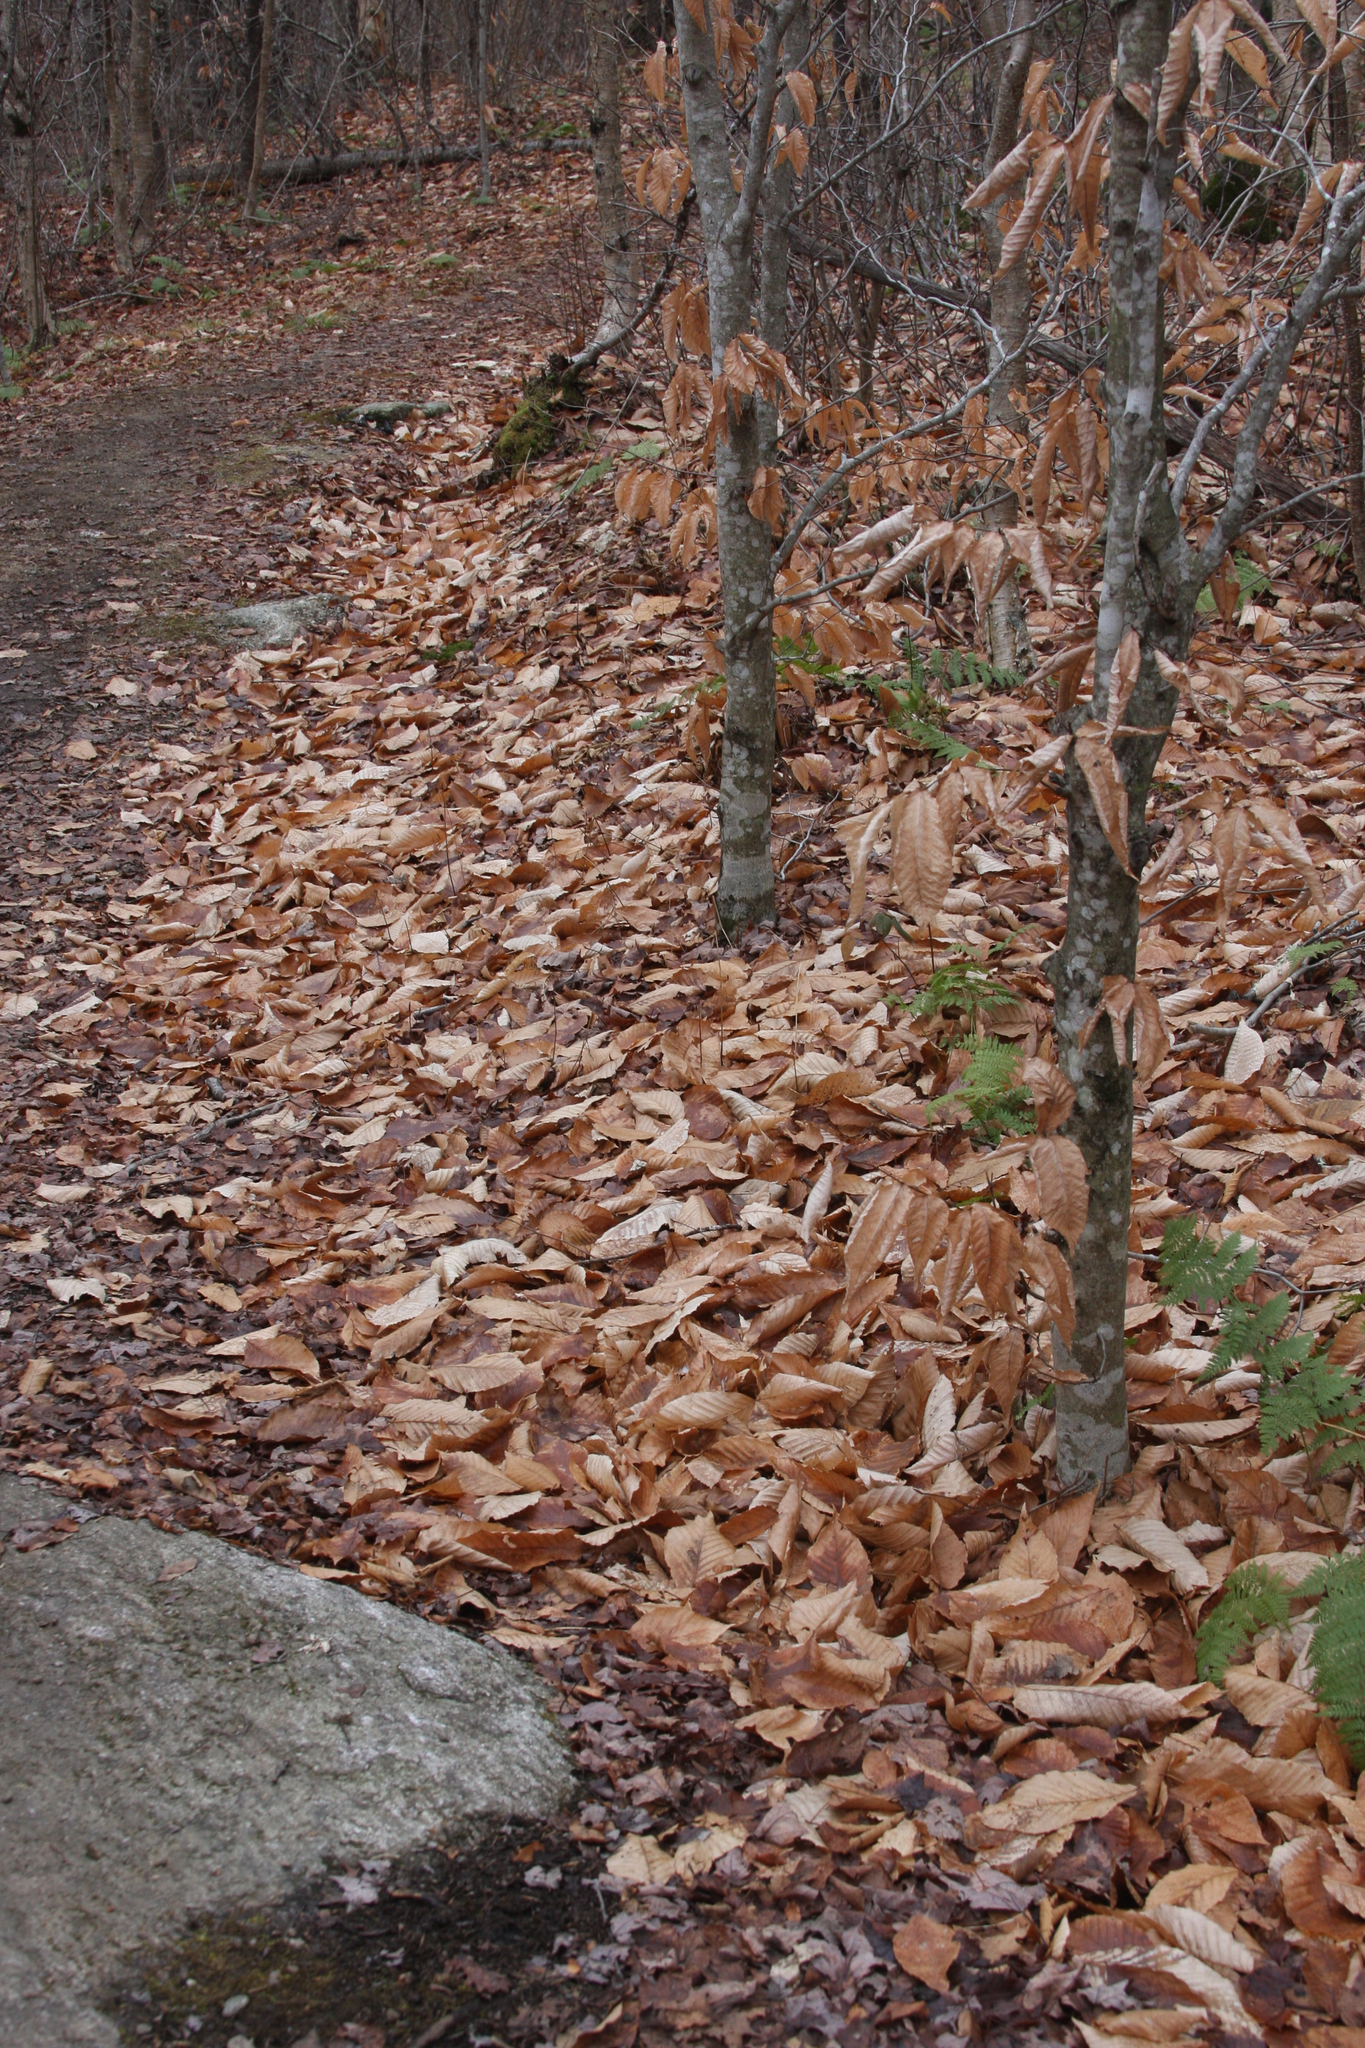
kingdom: Plantae
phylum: Tracheophyta
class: Magnoliopsida
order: Fagales
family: Fagaceae
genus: Fagus
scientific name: Fagus grandifolia
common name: American beech
